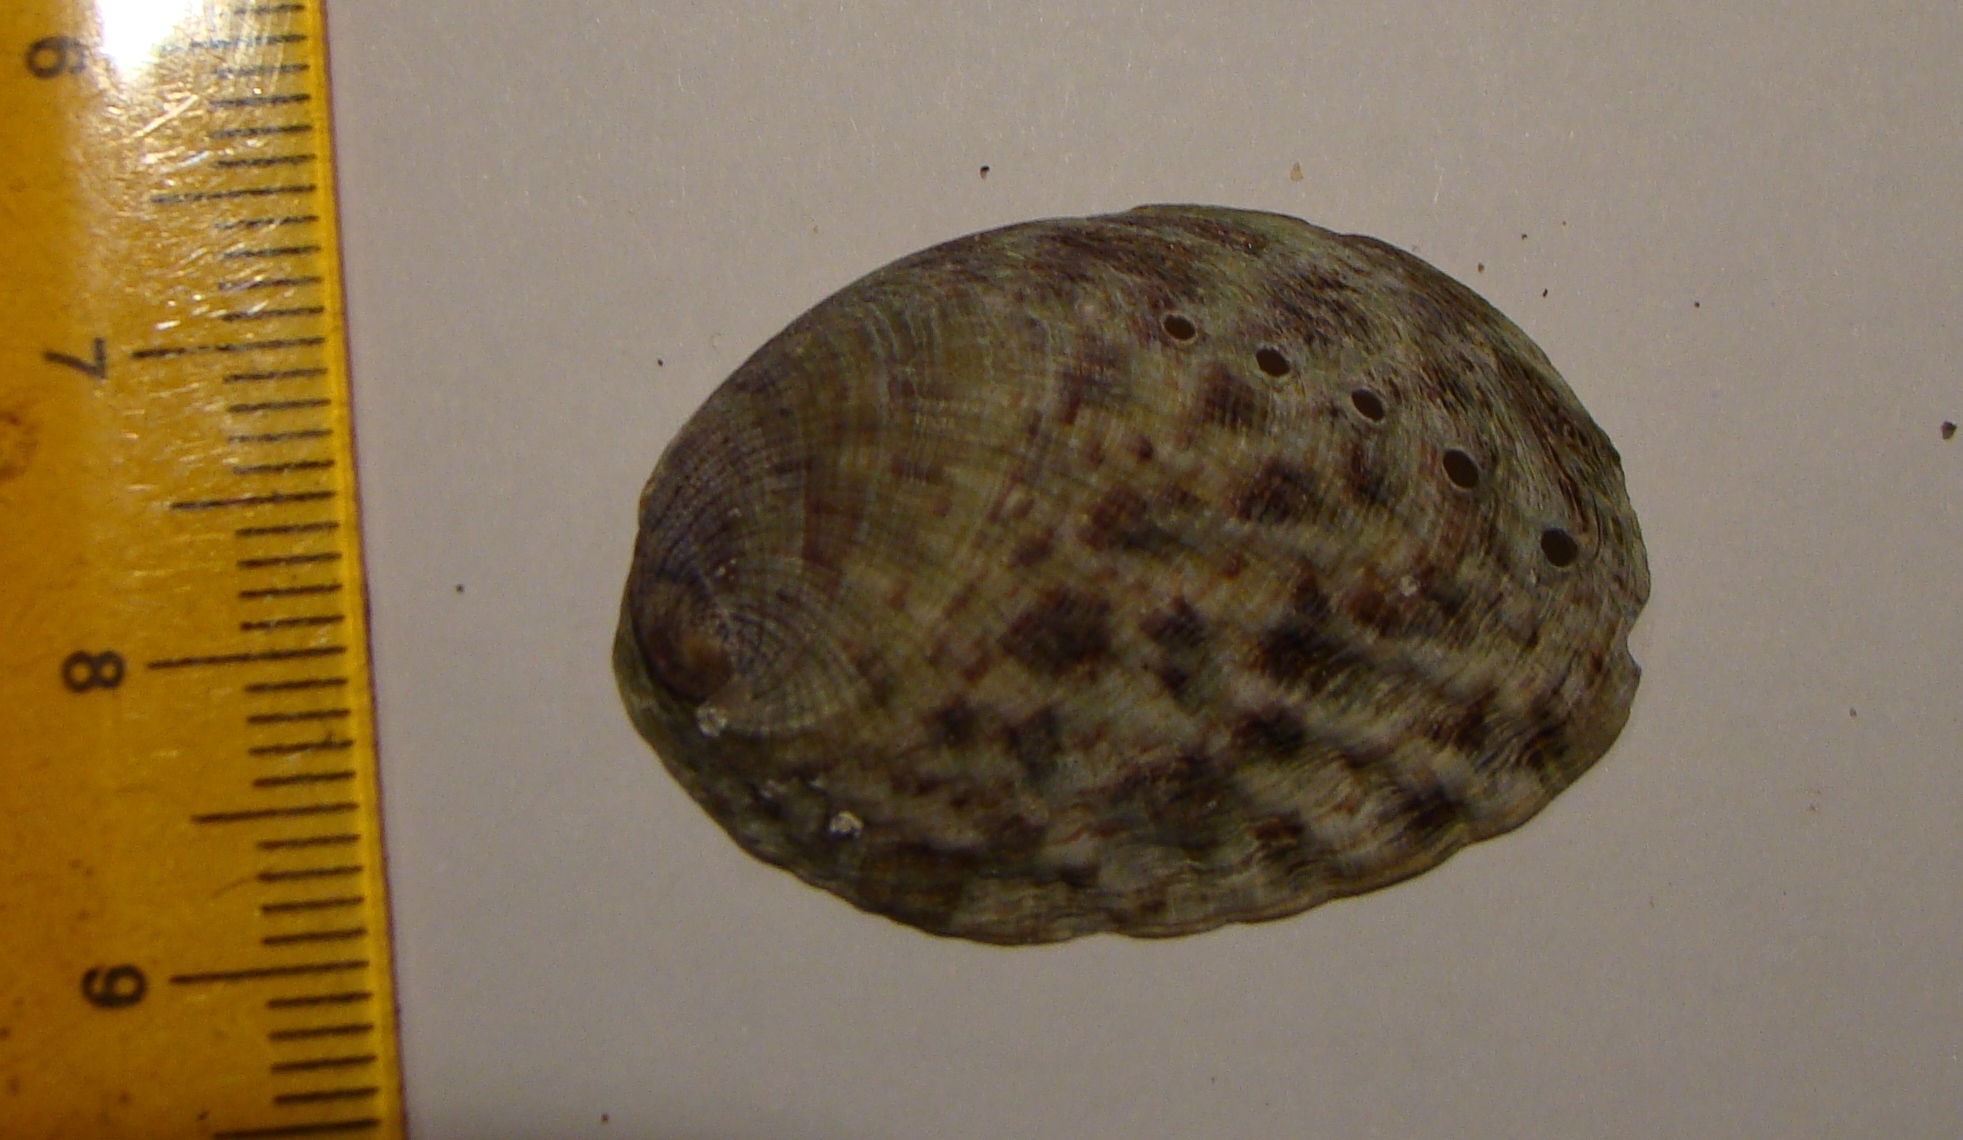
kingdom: Animalia
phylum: Mollusca
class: Gastropoda
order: Lepetellida
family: Haliotidae
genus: Haliotis
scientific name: Haliotis iris
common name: Abalone
